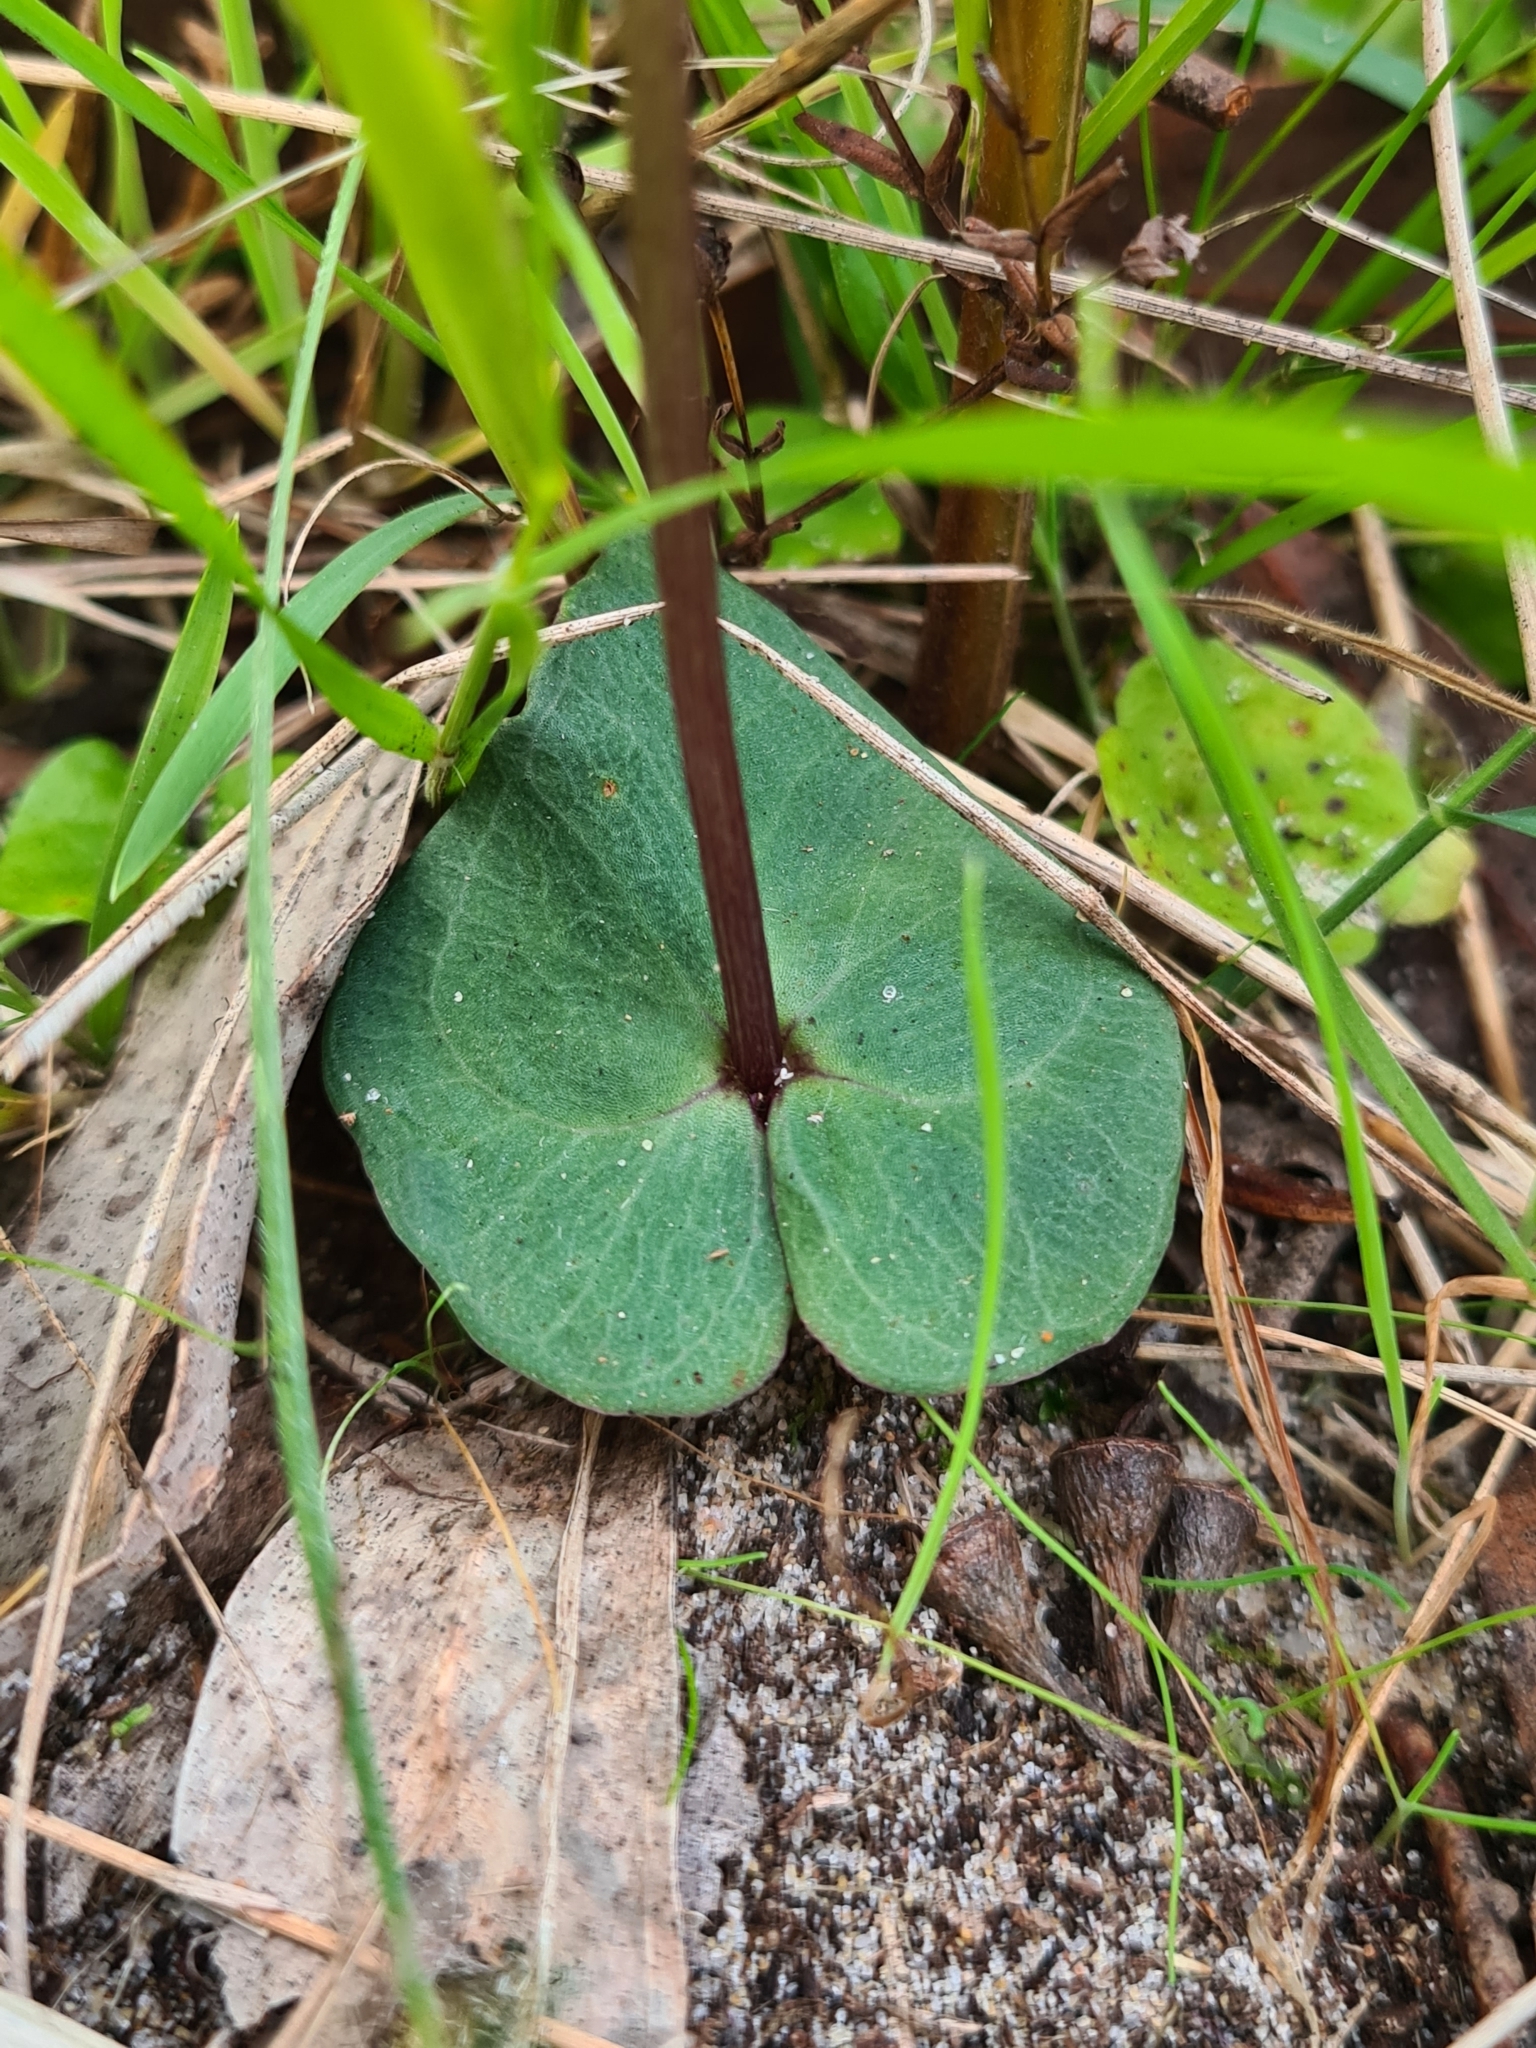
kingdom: Plantae
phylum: Tracheophyta
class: Liliopsida
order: Asparagales
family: Orchidaceae
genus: Acianthus
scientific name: Acianthus fornicatus
